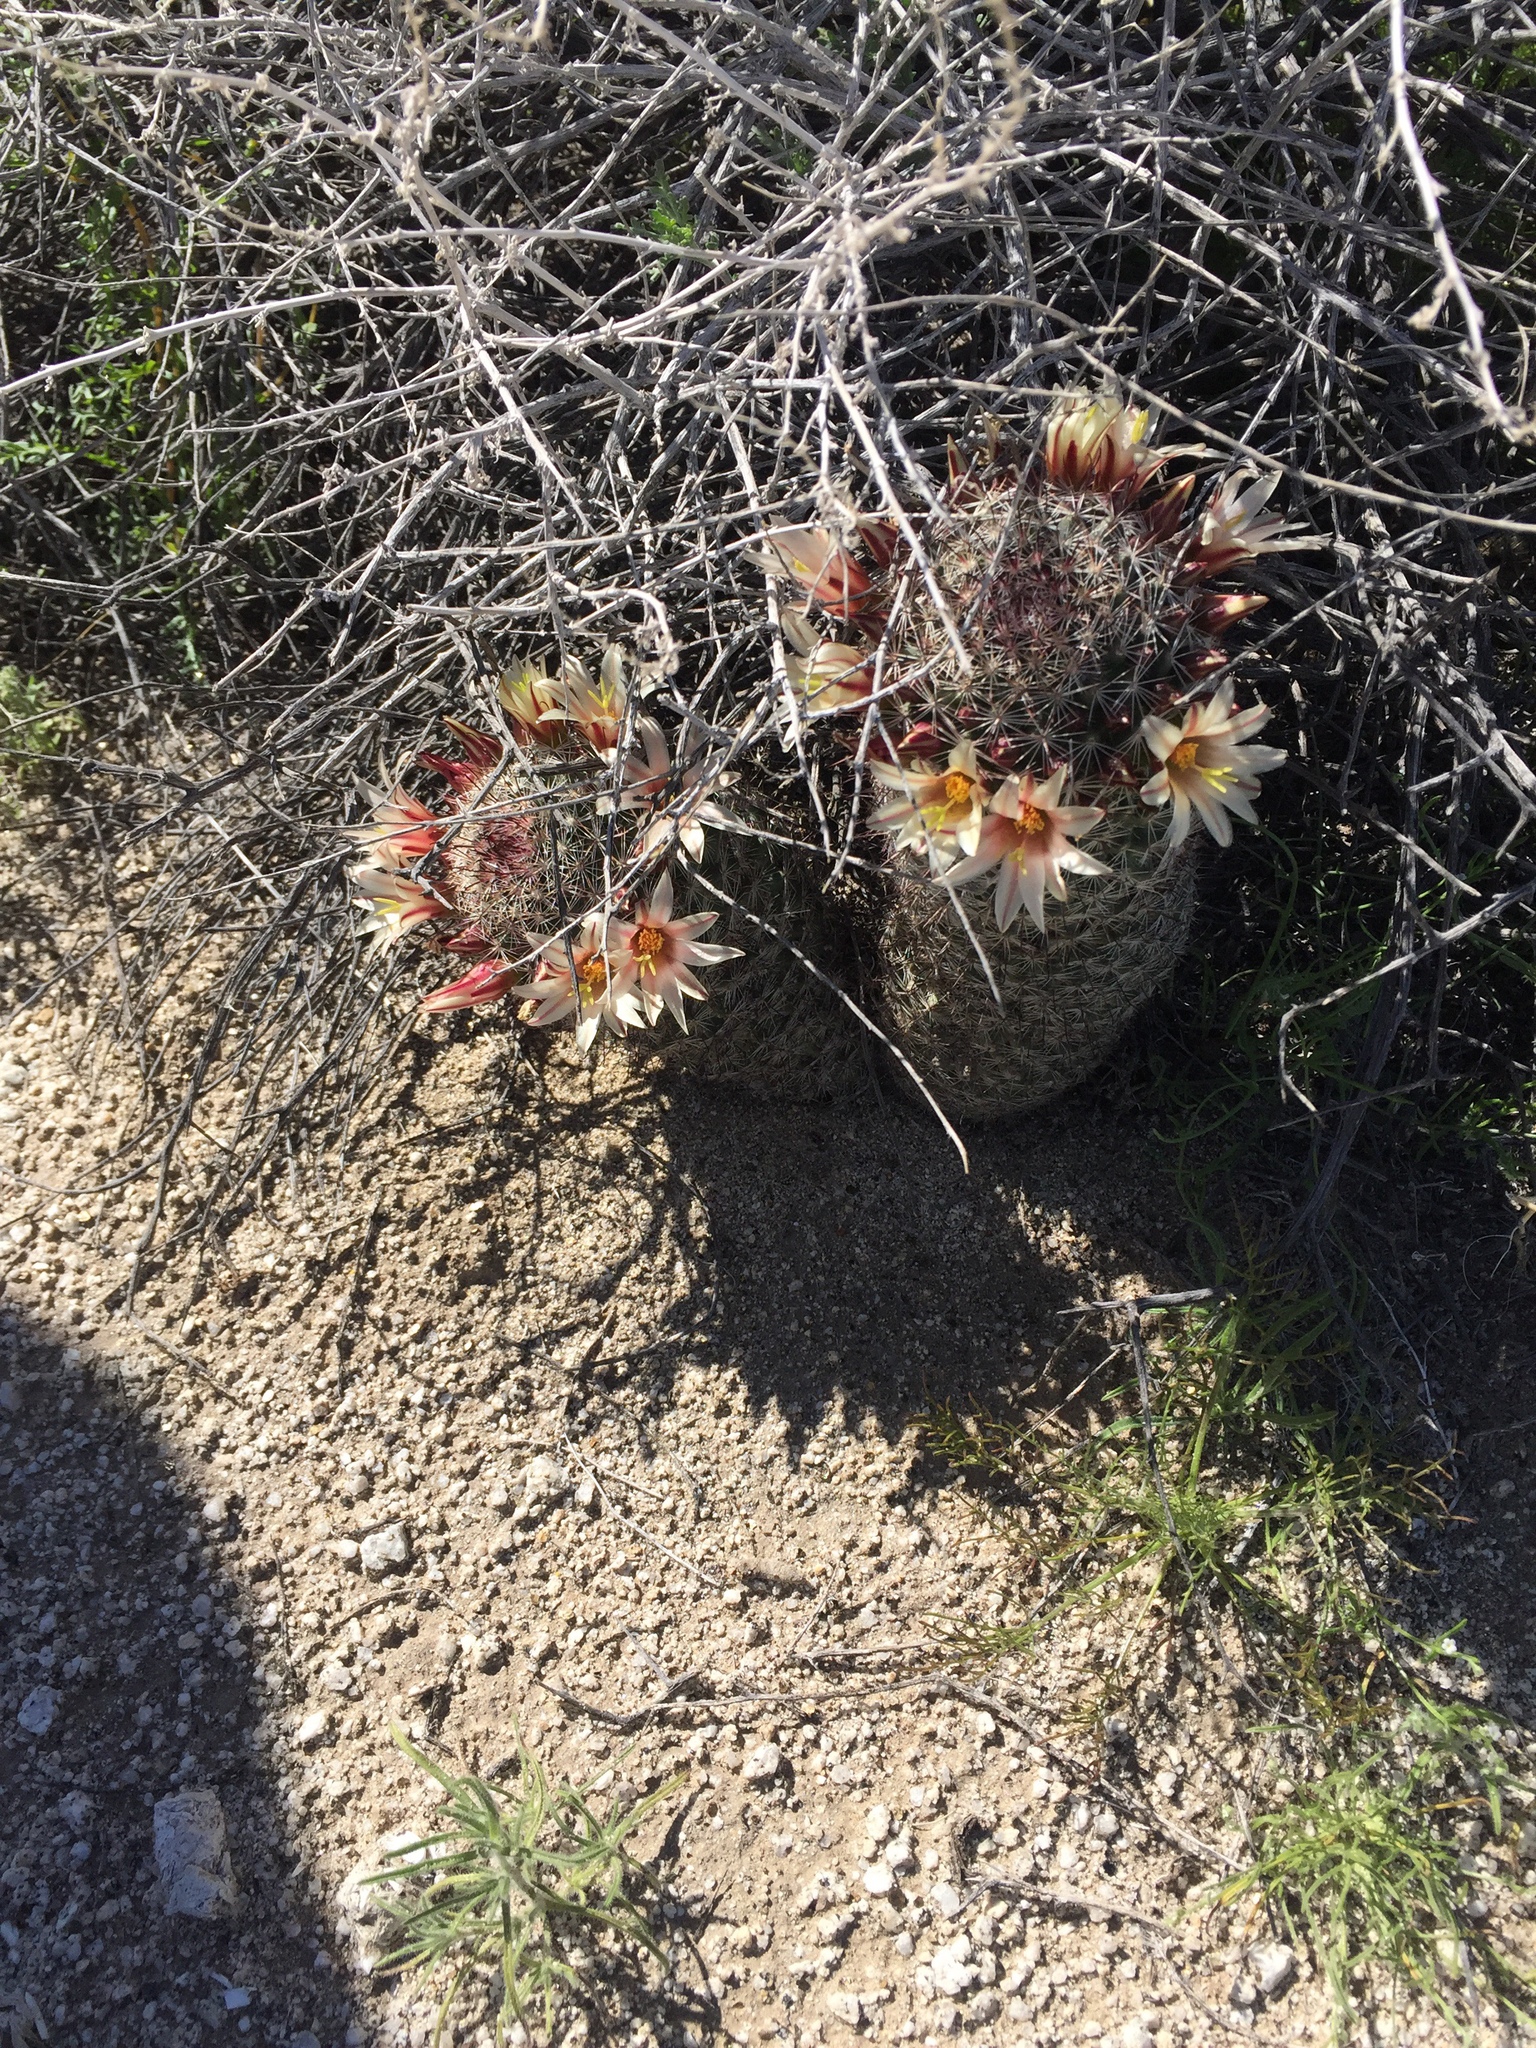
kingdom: Plantae
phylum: Tracheophyta
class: Magnoliopsida
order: Caryophyllales
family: Cactaceae
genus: Cochemiea
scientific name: Cochemiea dioica
